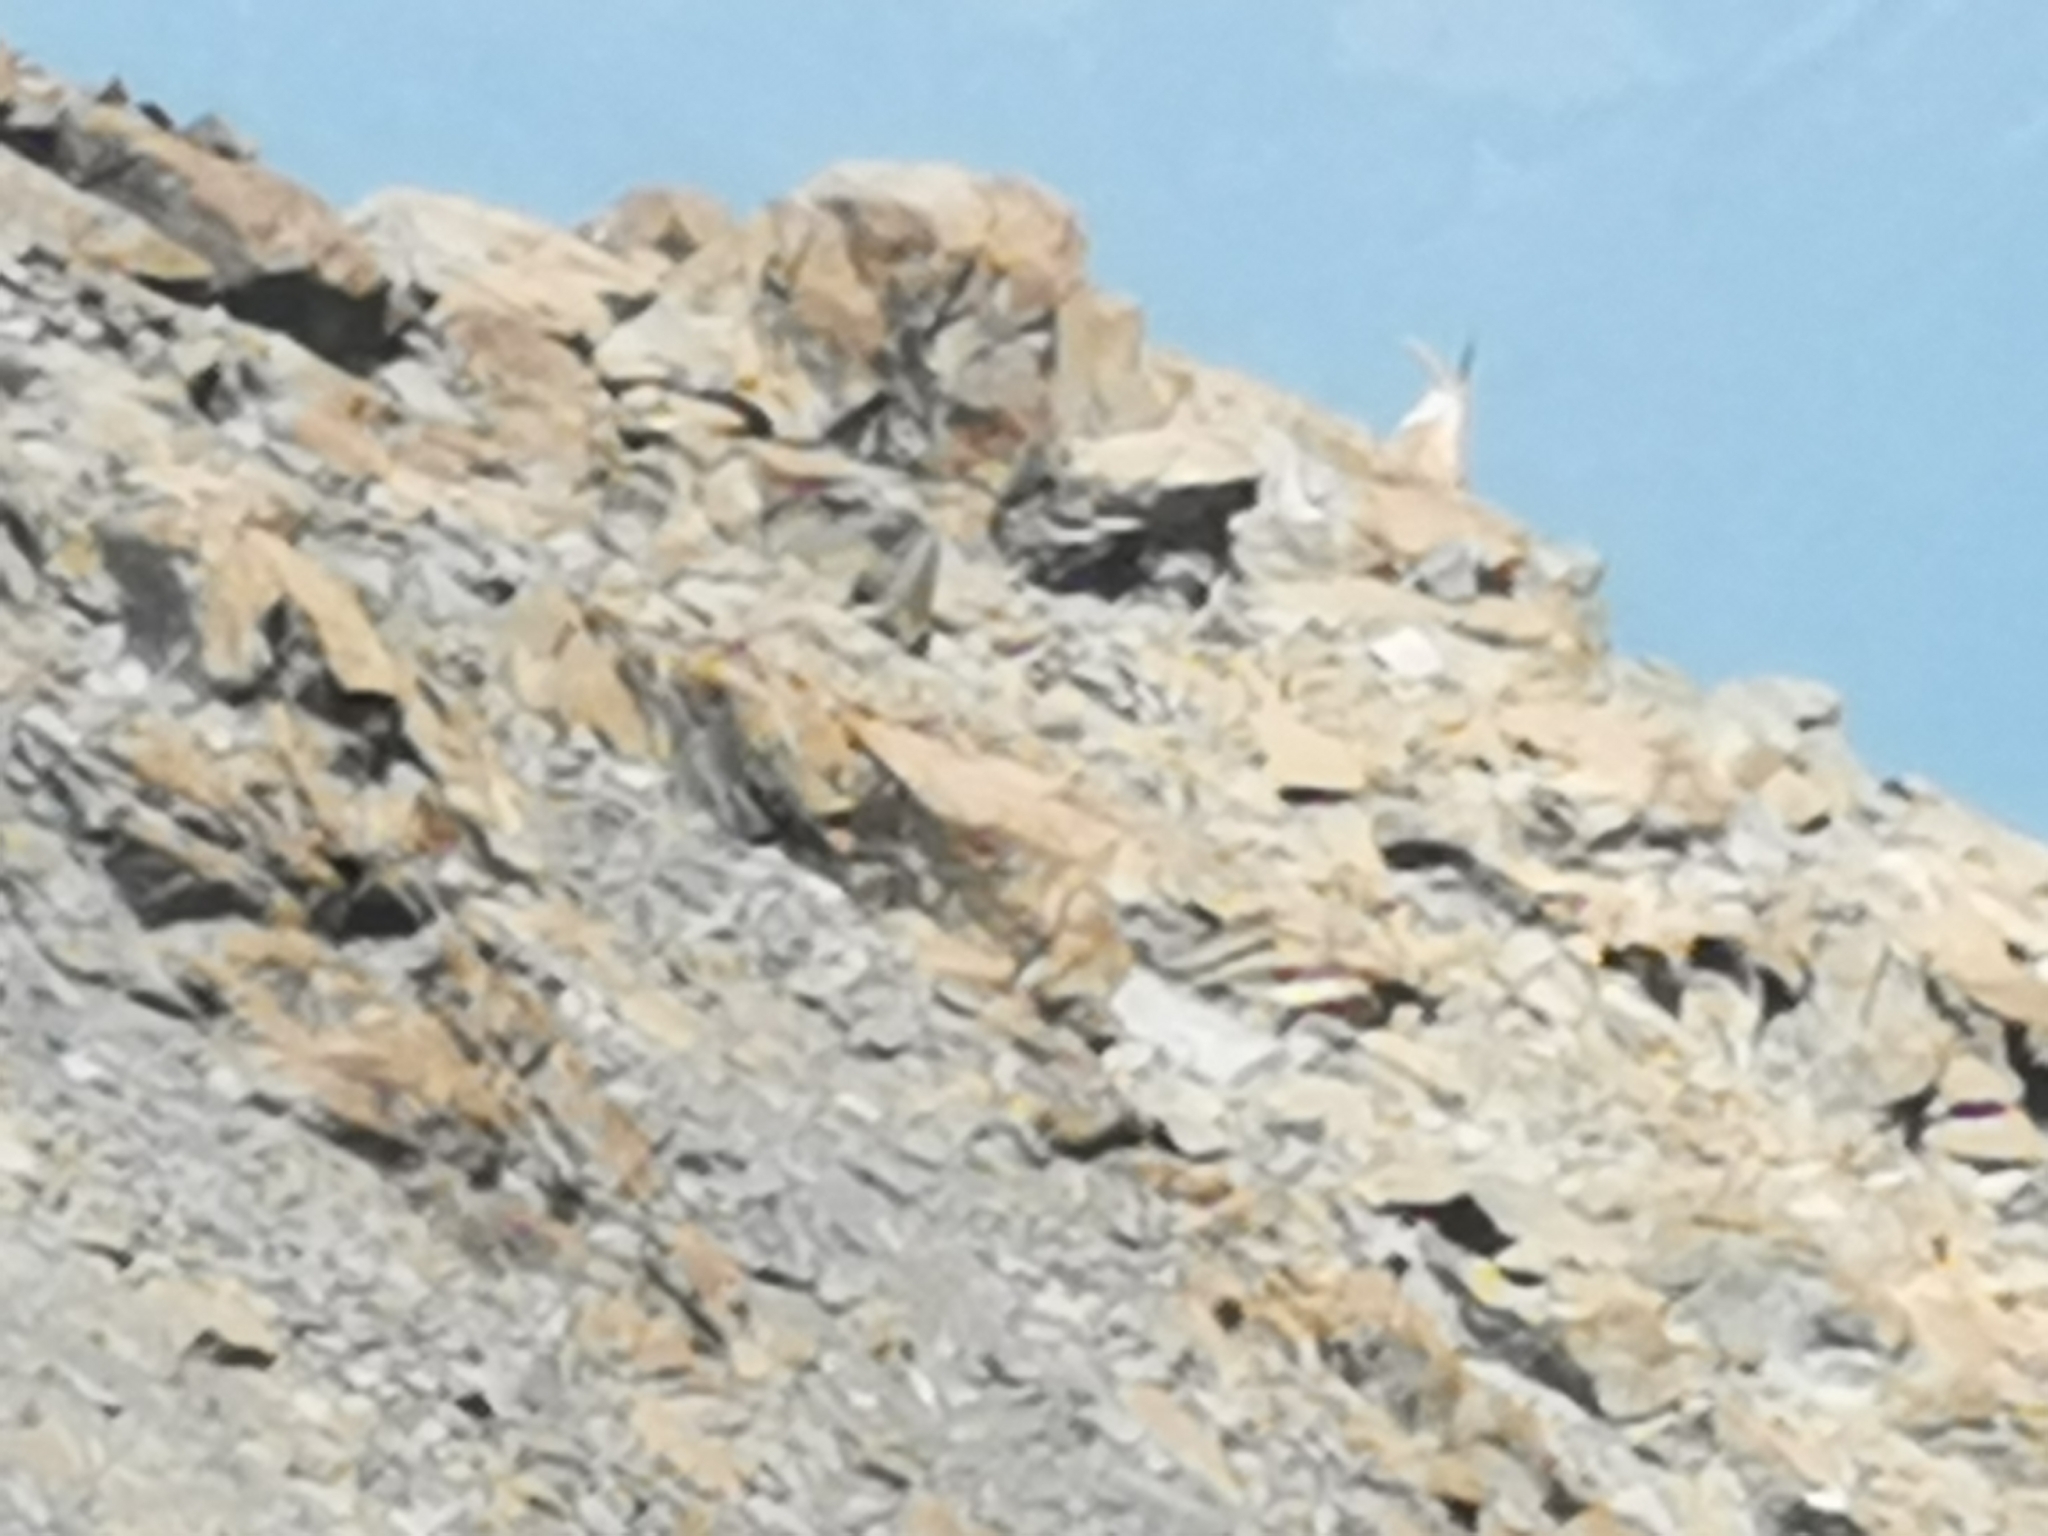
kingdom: Animalia
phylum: Chordata
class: Mammalia
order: Artiodactyla
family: Bovidae
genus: Capra
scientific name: Capra ibex
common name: Alpine ibex
